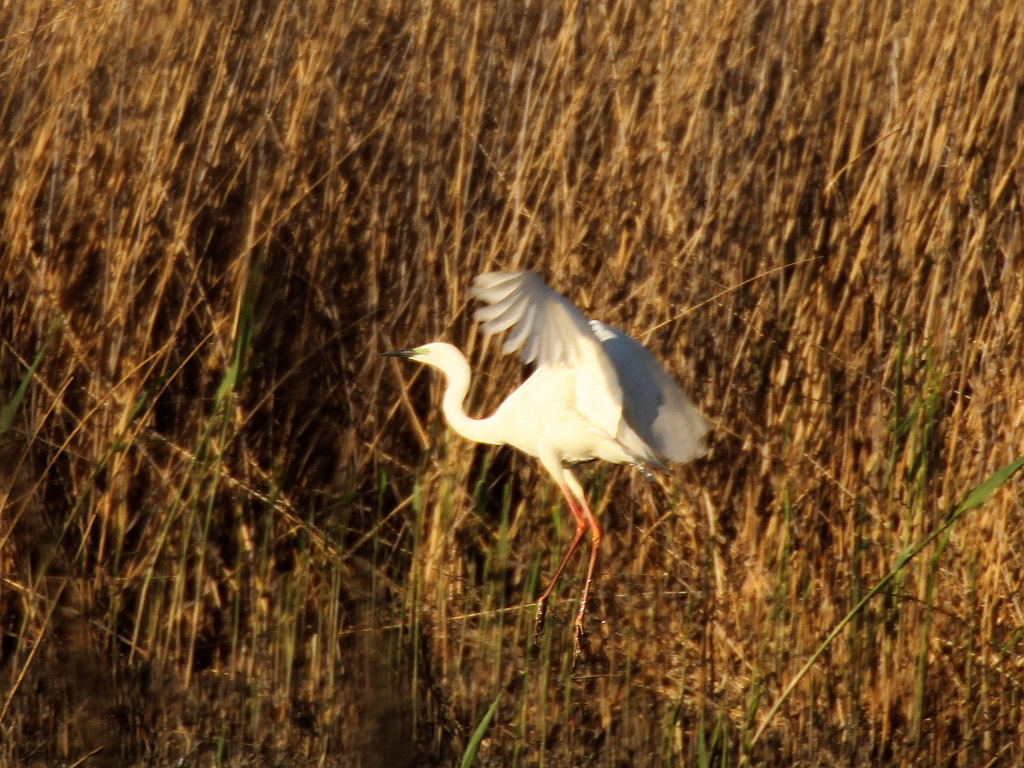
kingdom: Animalia
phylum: Chordata
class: Aves
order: Pelecaniformes
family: Ardeidae
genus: Ardea
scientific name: Ardea alba
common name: Great egret
